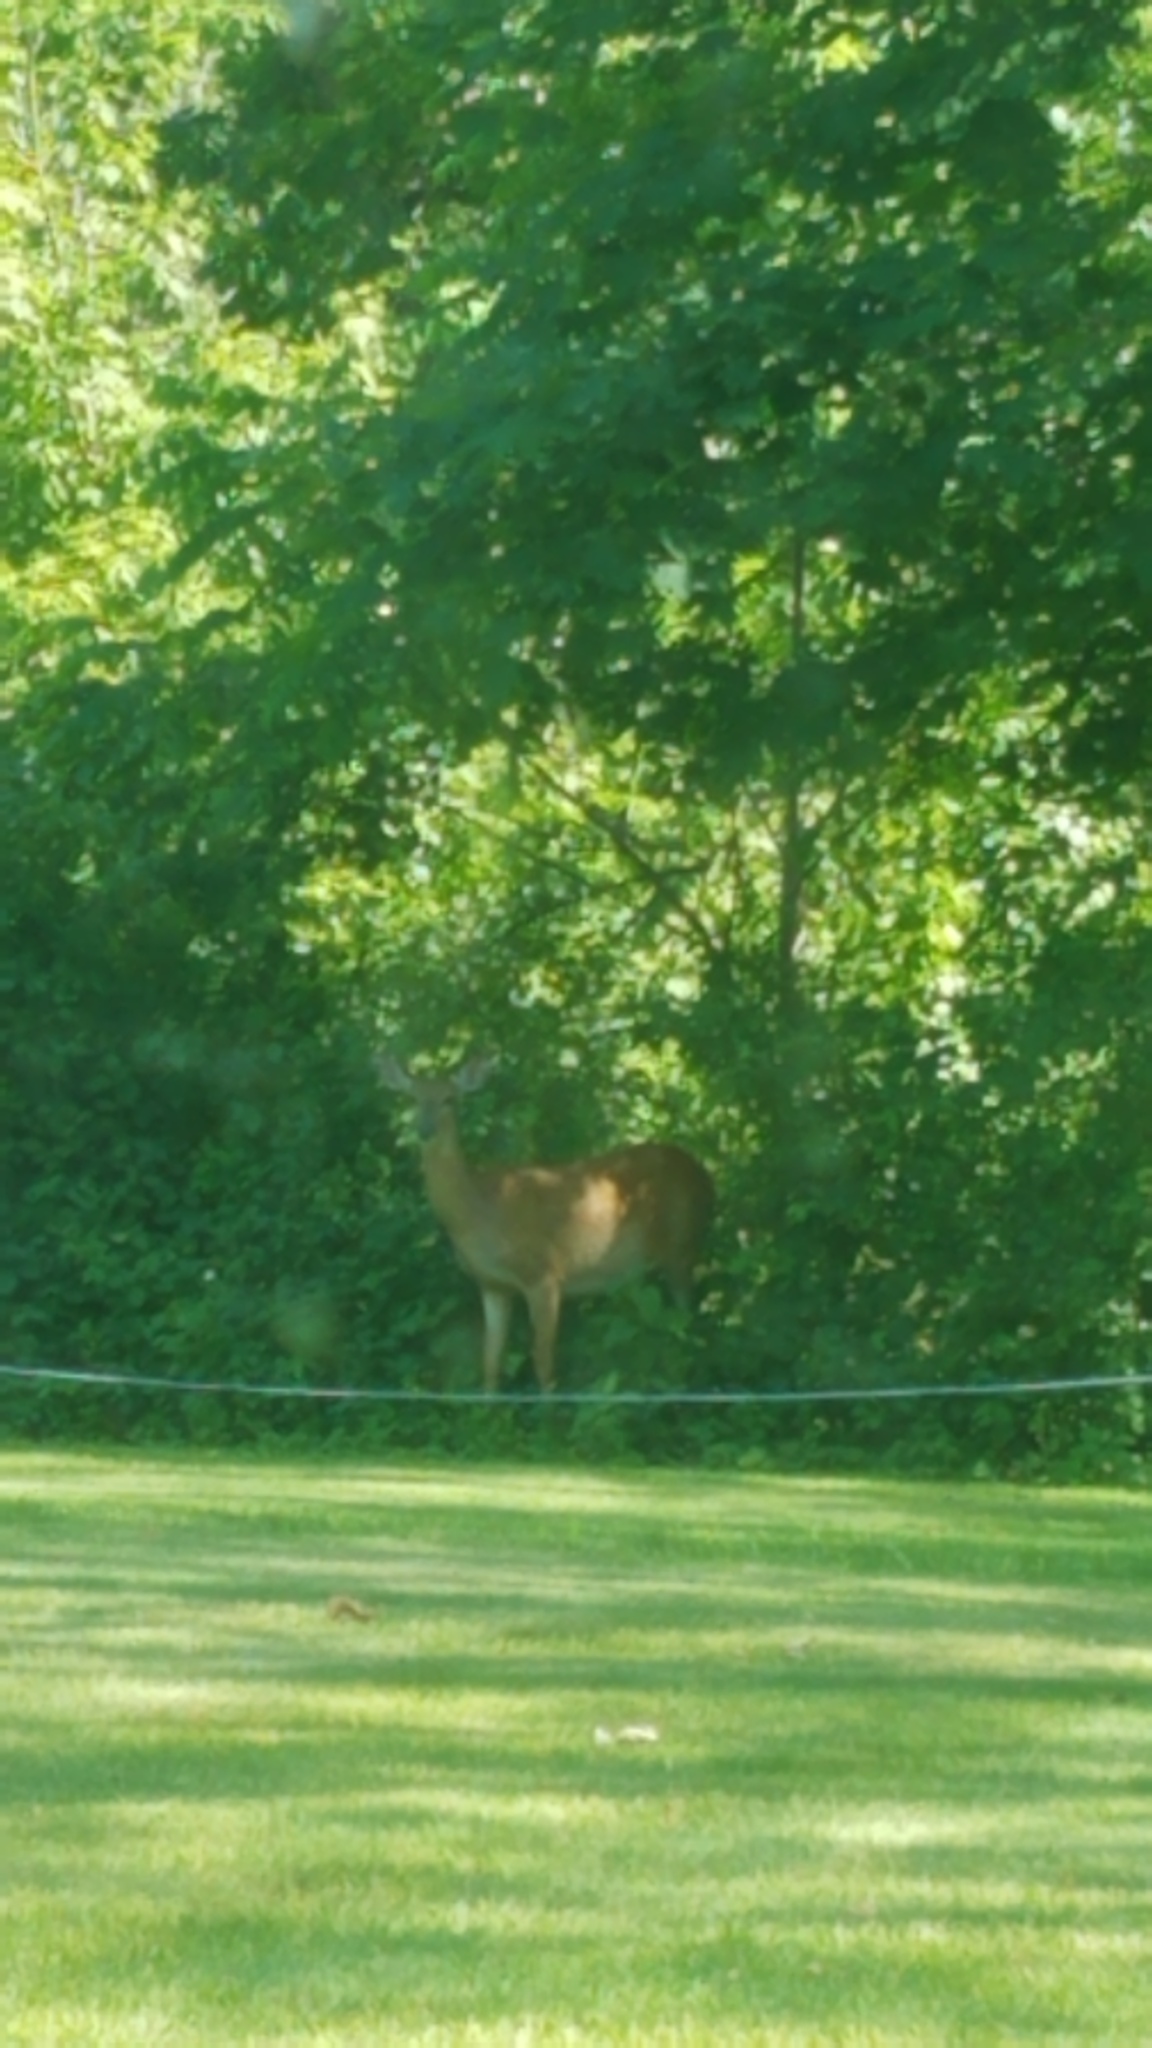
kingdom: Animalia
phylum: Chordata
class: Mammalia
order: Artiodactyla
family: Cervidae
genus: Odocoileus
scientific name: Odocoileus virginianus
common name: White-tailed deer
